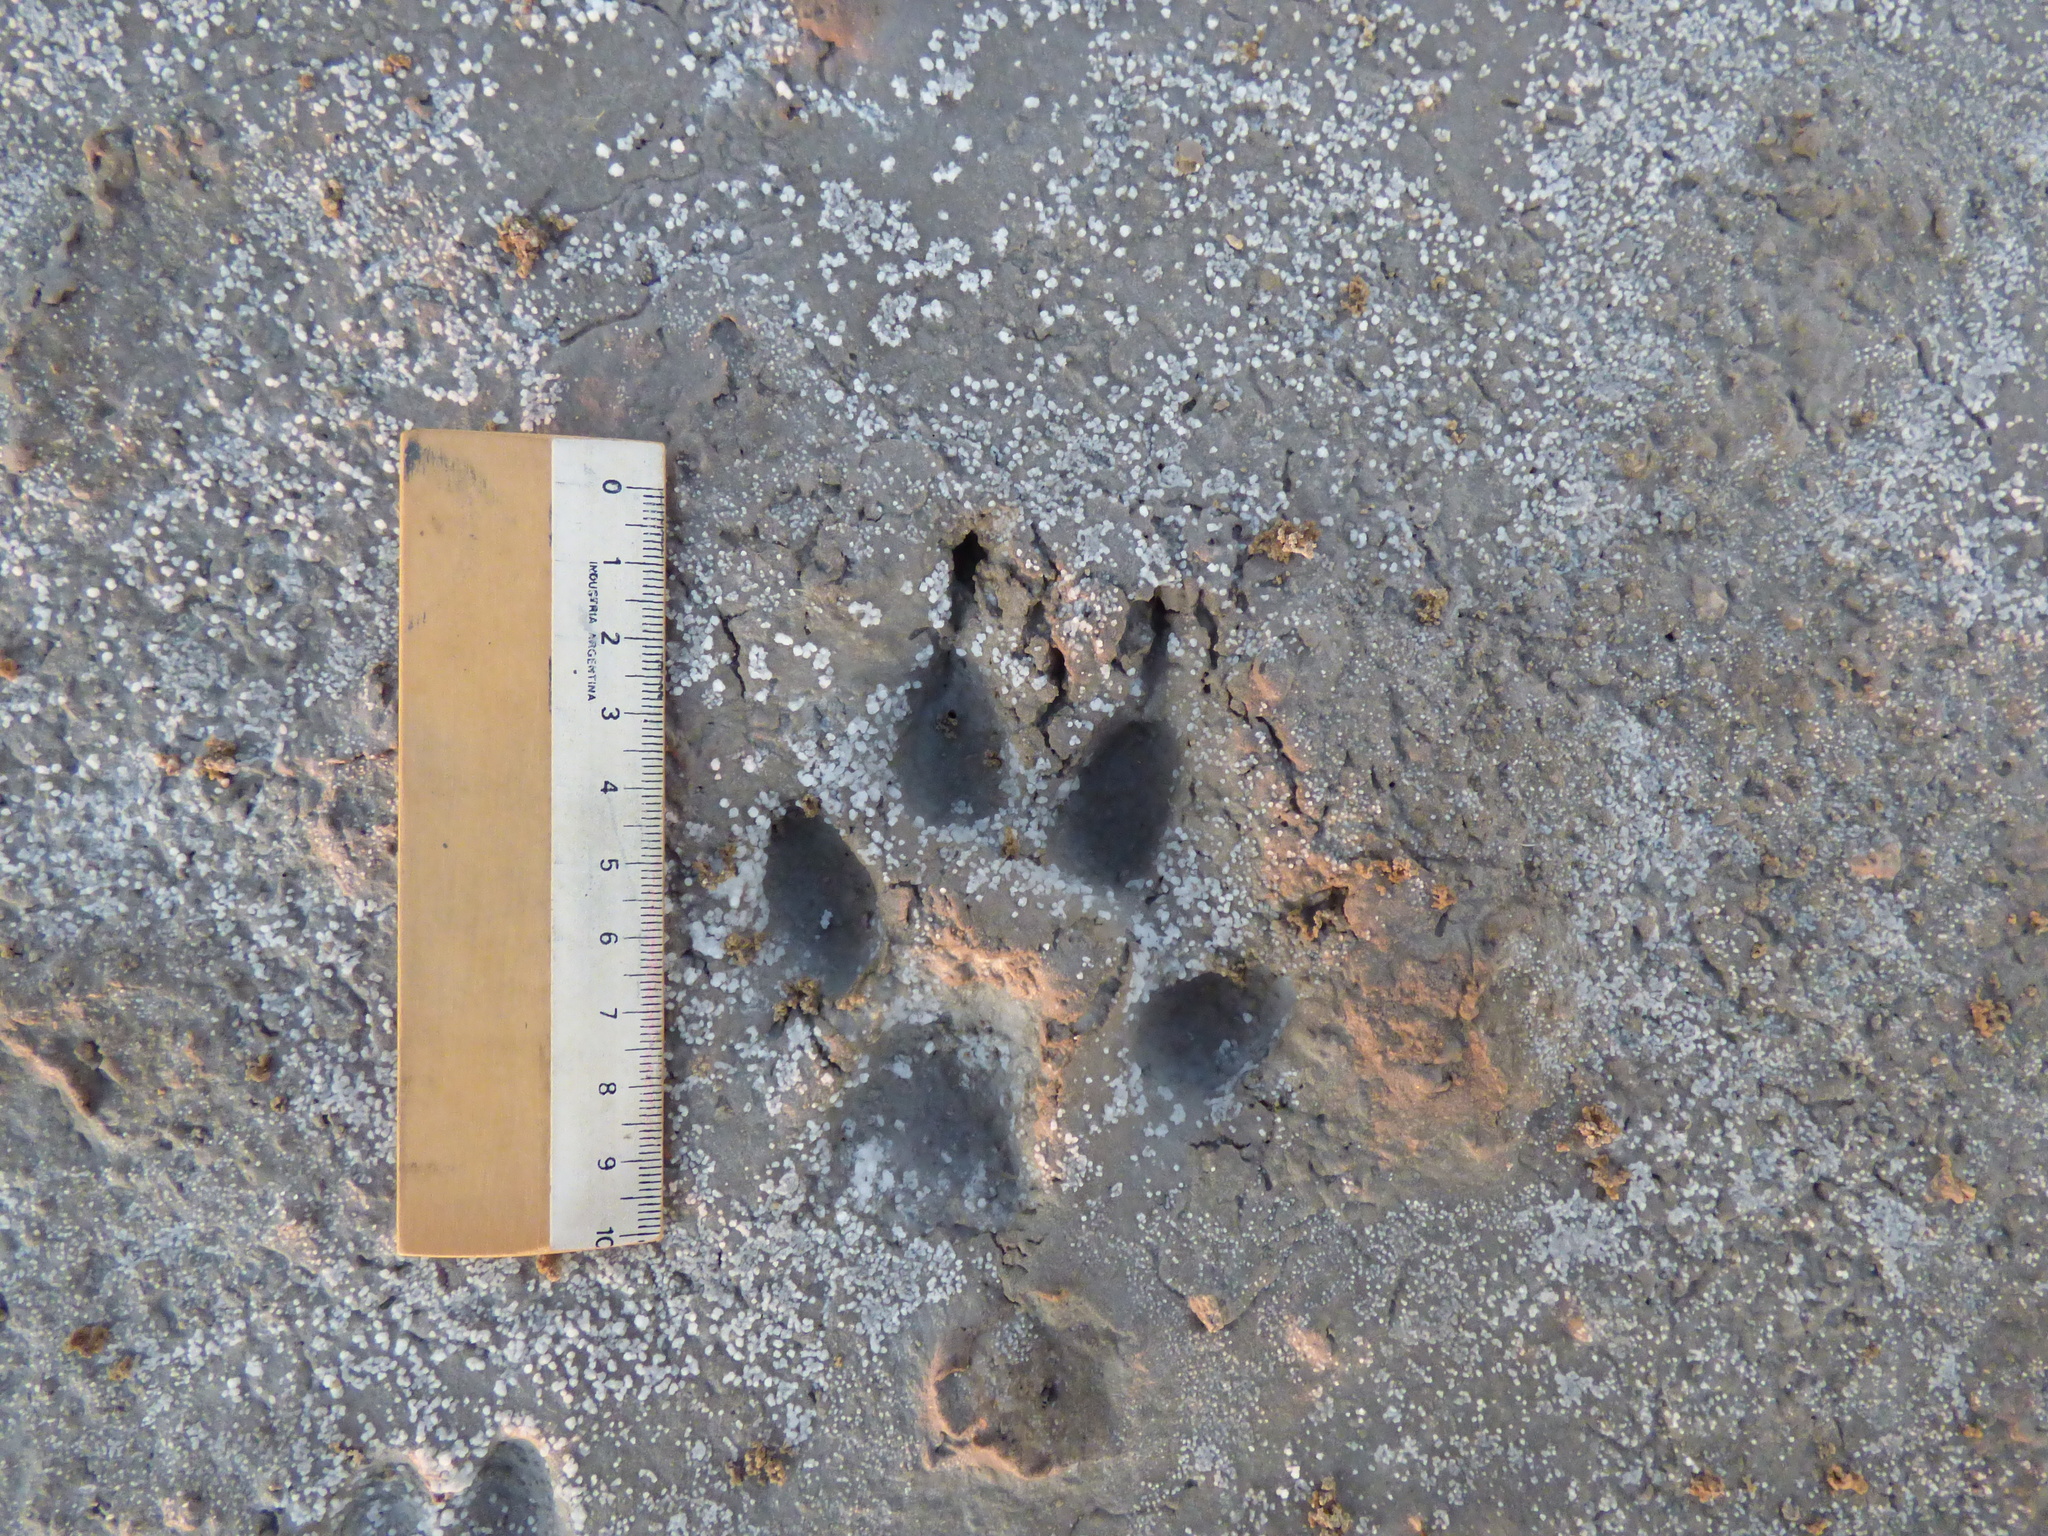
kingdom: Animalia
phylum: Chordata
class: Mammalia
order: Carnivora
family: Canidae
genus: Chrysocyon
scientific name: Chrysocyon brachyurus
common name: Maned wolf
